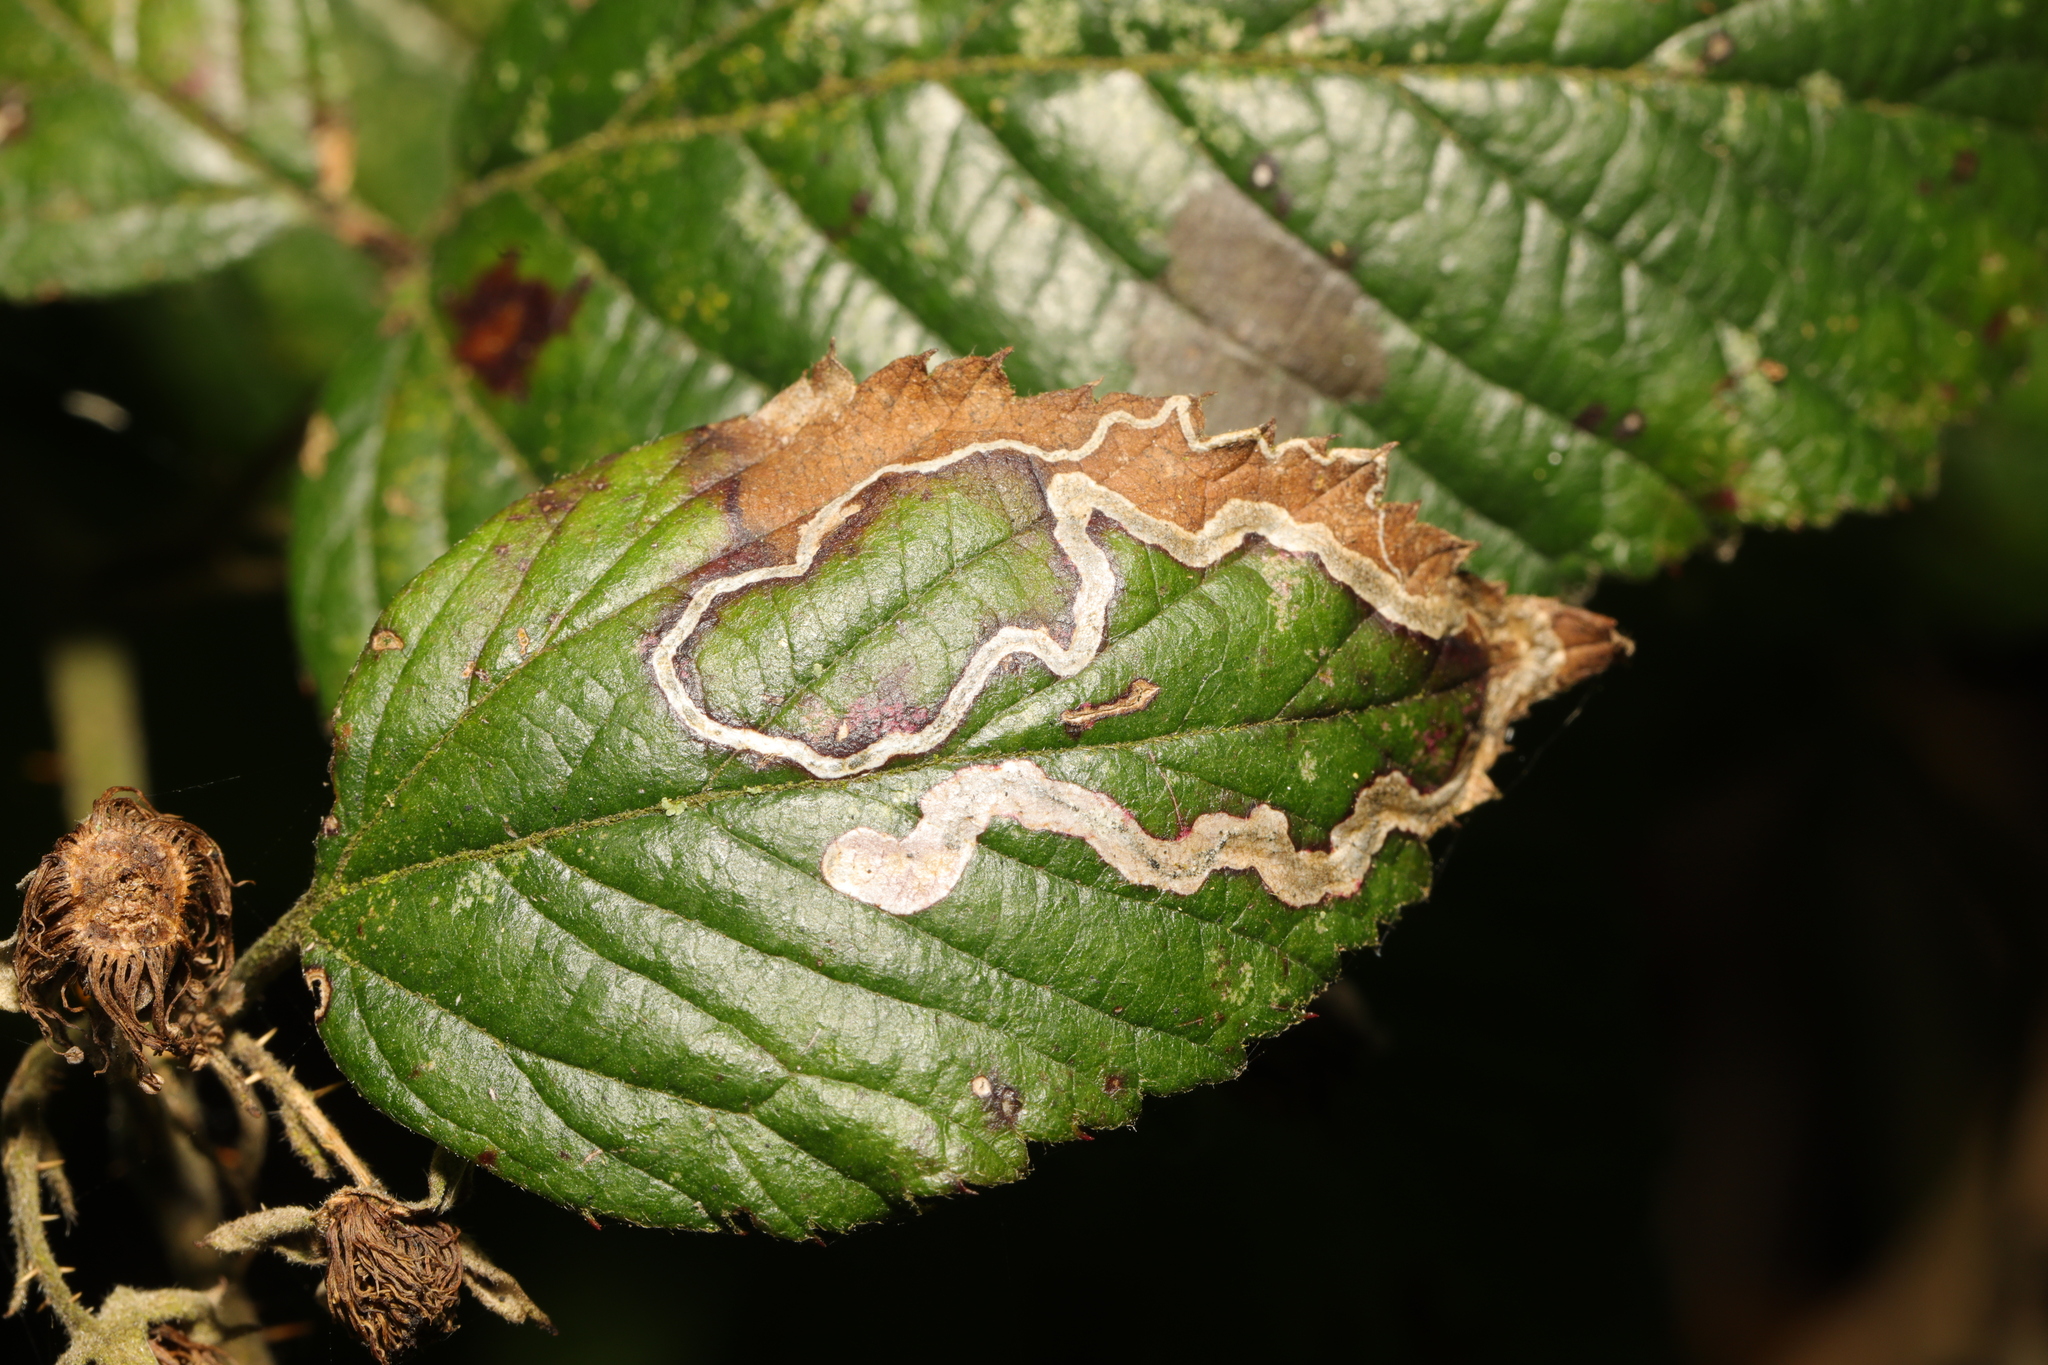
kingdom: Animalia
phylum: Arthropoda
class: Insecta
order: Lepidoptera
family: Nepticulidae
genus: Stigmella
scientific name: Stigmella aurella
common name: Golden pigmy
